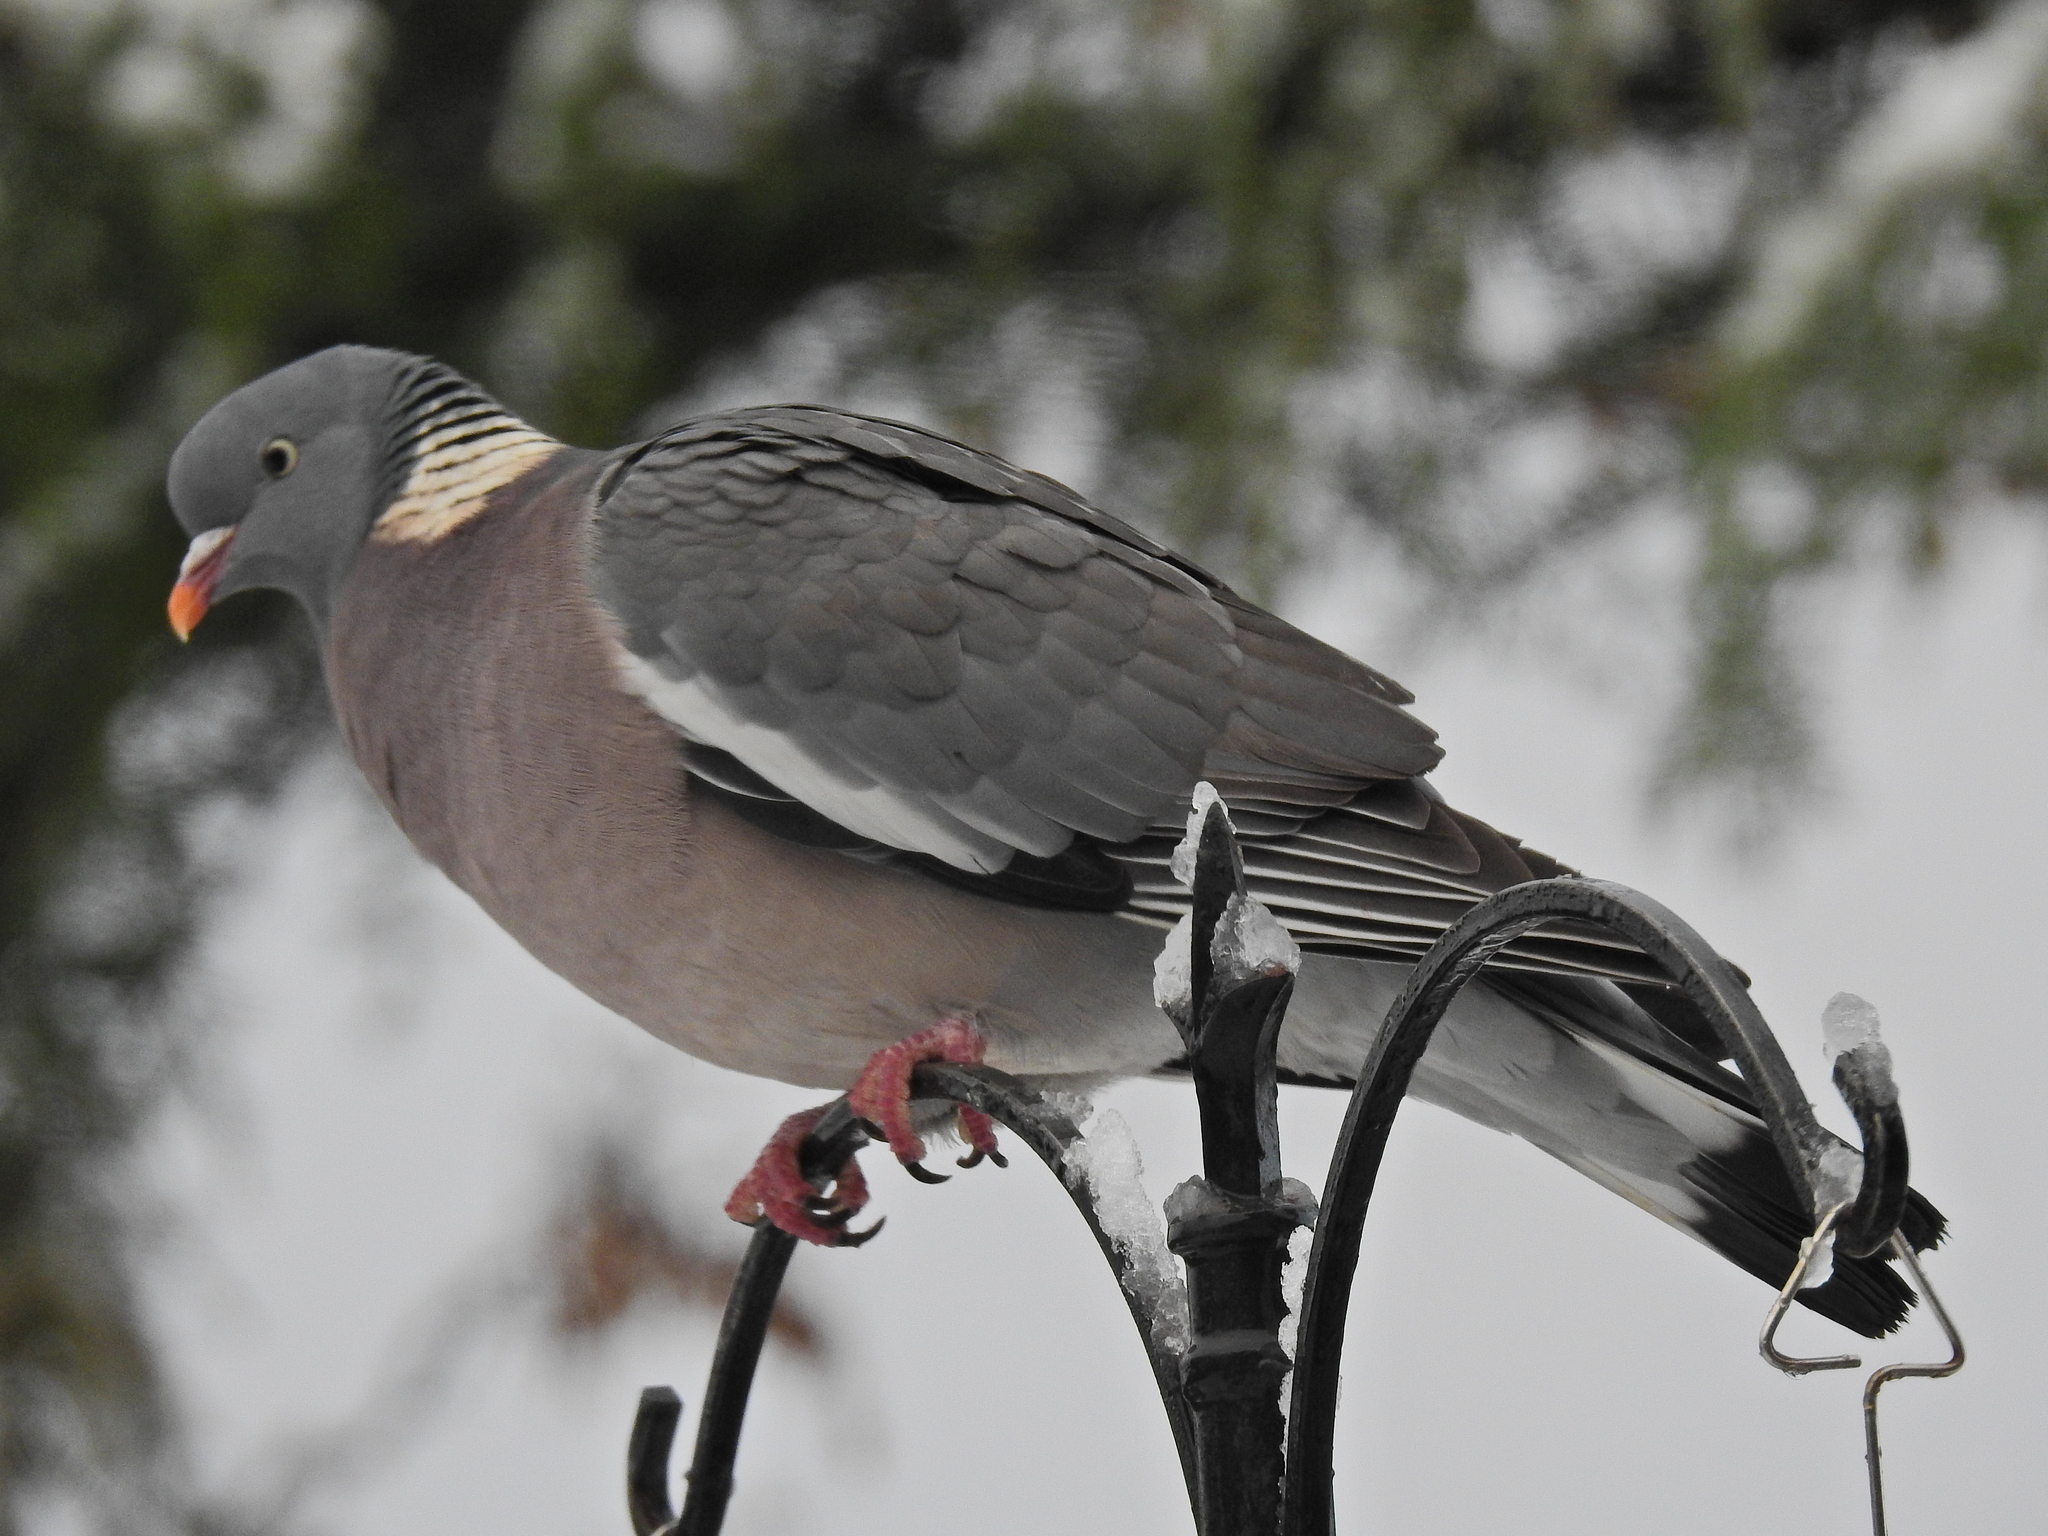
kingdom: Animalia
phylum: Chordata
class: Aves
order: Columbiformes
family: Columbidae
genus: Columba
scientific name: Columba palumbus
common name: Common wood pigeon
